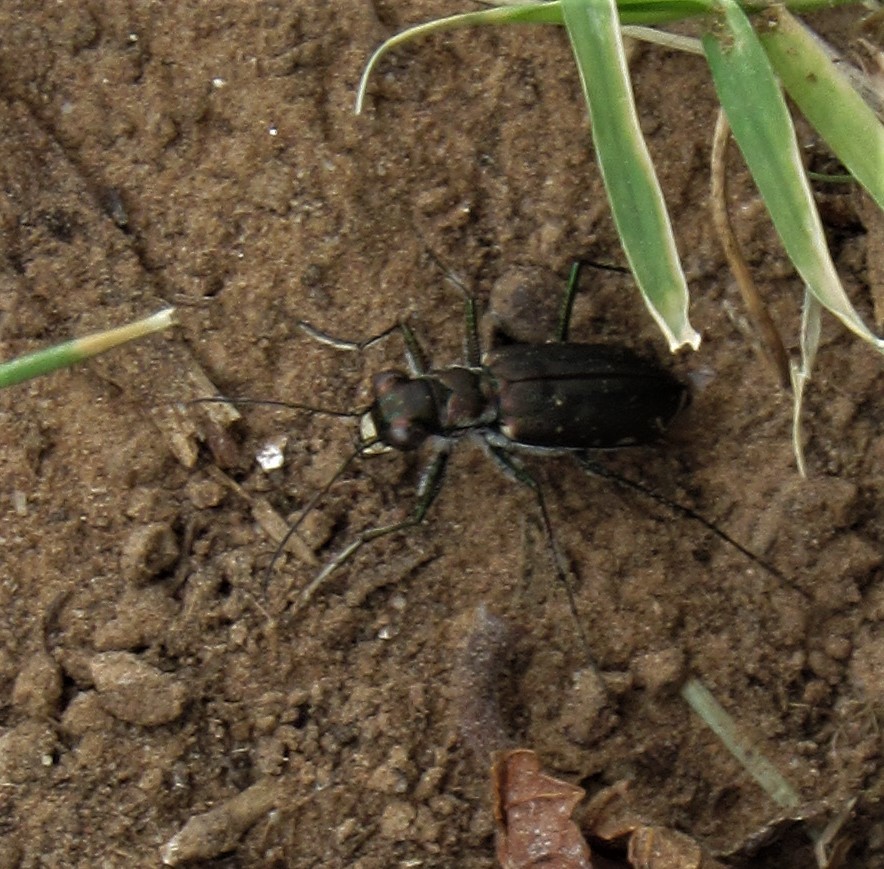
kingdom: Animalia
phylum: Arthropoda
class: Insecta
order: Coleoptera
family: Carabidae
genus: Cicindela
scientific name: Cicindela punctulata
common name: Punctured tiger beetle
